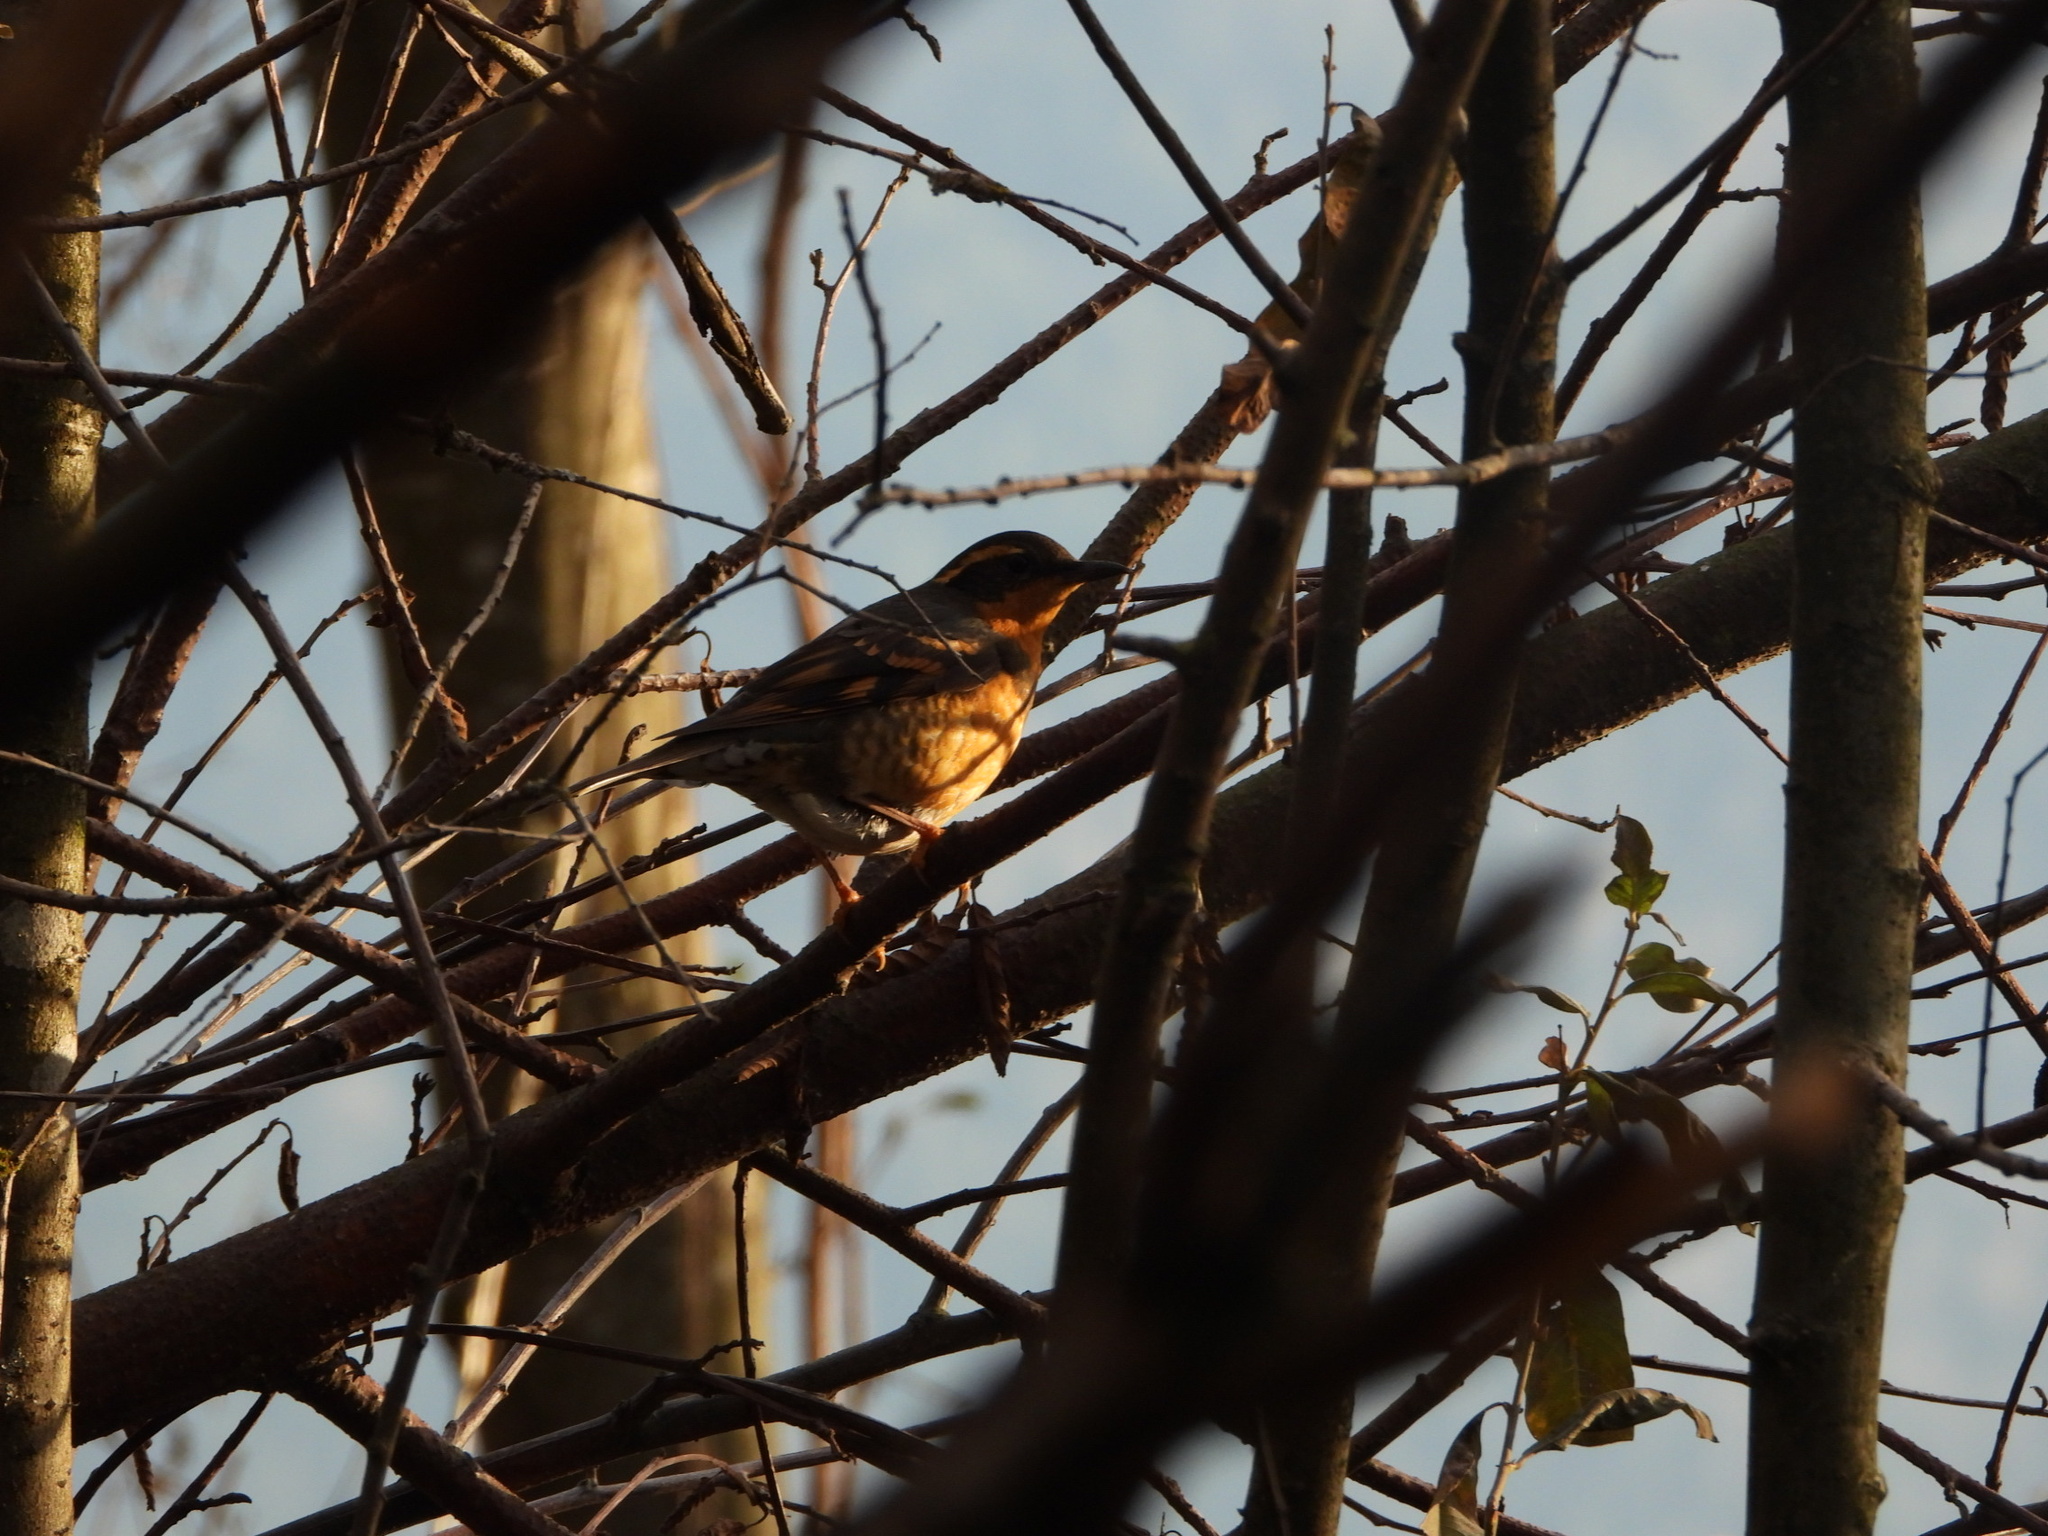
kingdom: Animalia
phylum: Chordata
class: Aves
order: Passeriformes
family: Turdidae
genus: Ixoreus
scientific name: Ixoreus naevius
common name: Varied thrush
